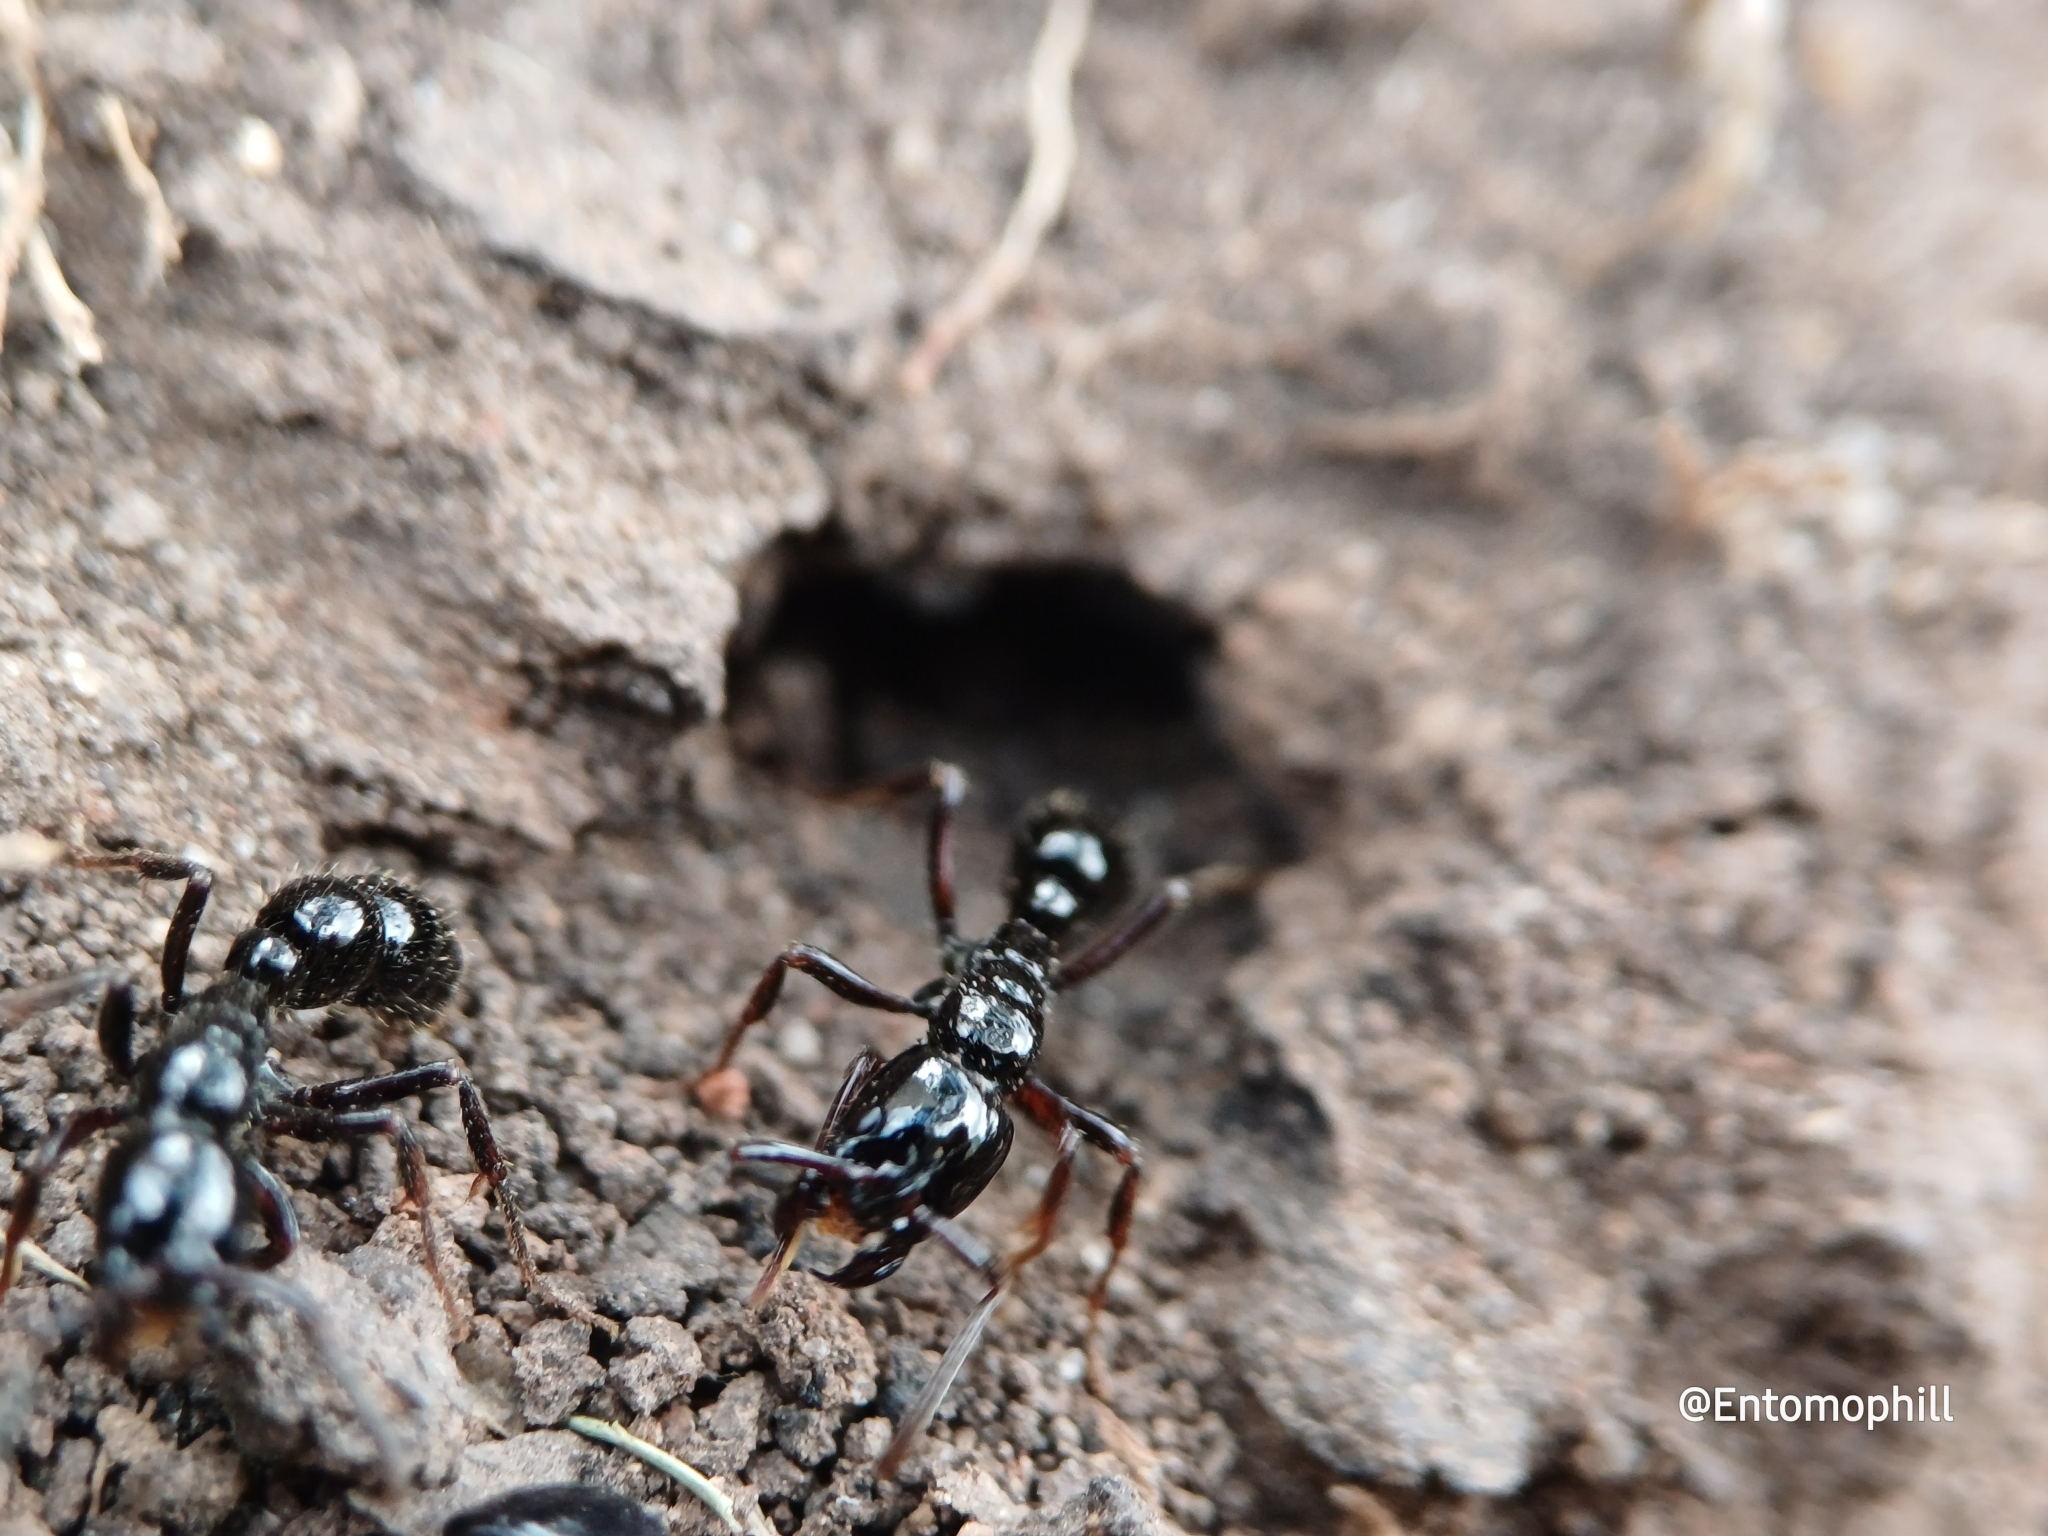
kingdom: Animalia
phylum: Arthropoda
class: Insecta
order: Hymenoptera
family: Formicidae
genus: Neoponera
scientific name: Neoponera
